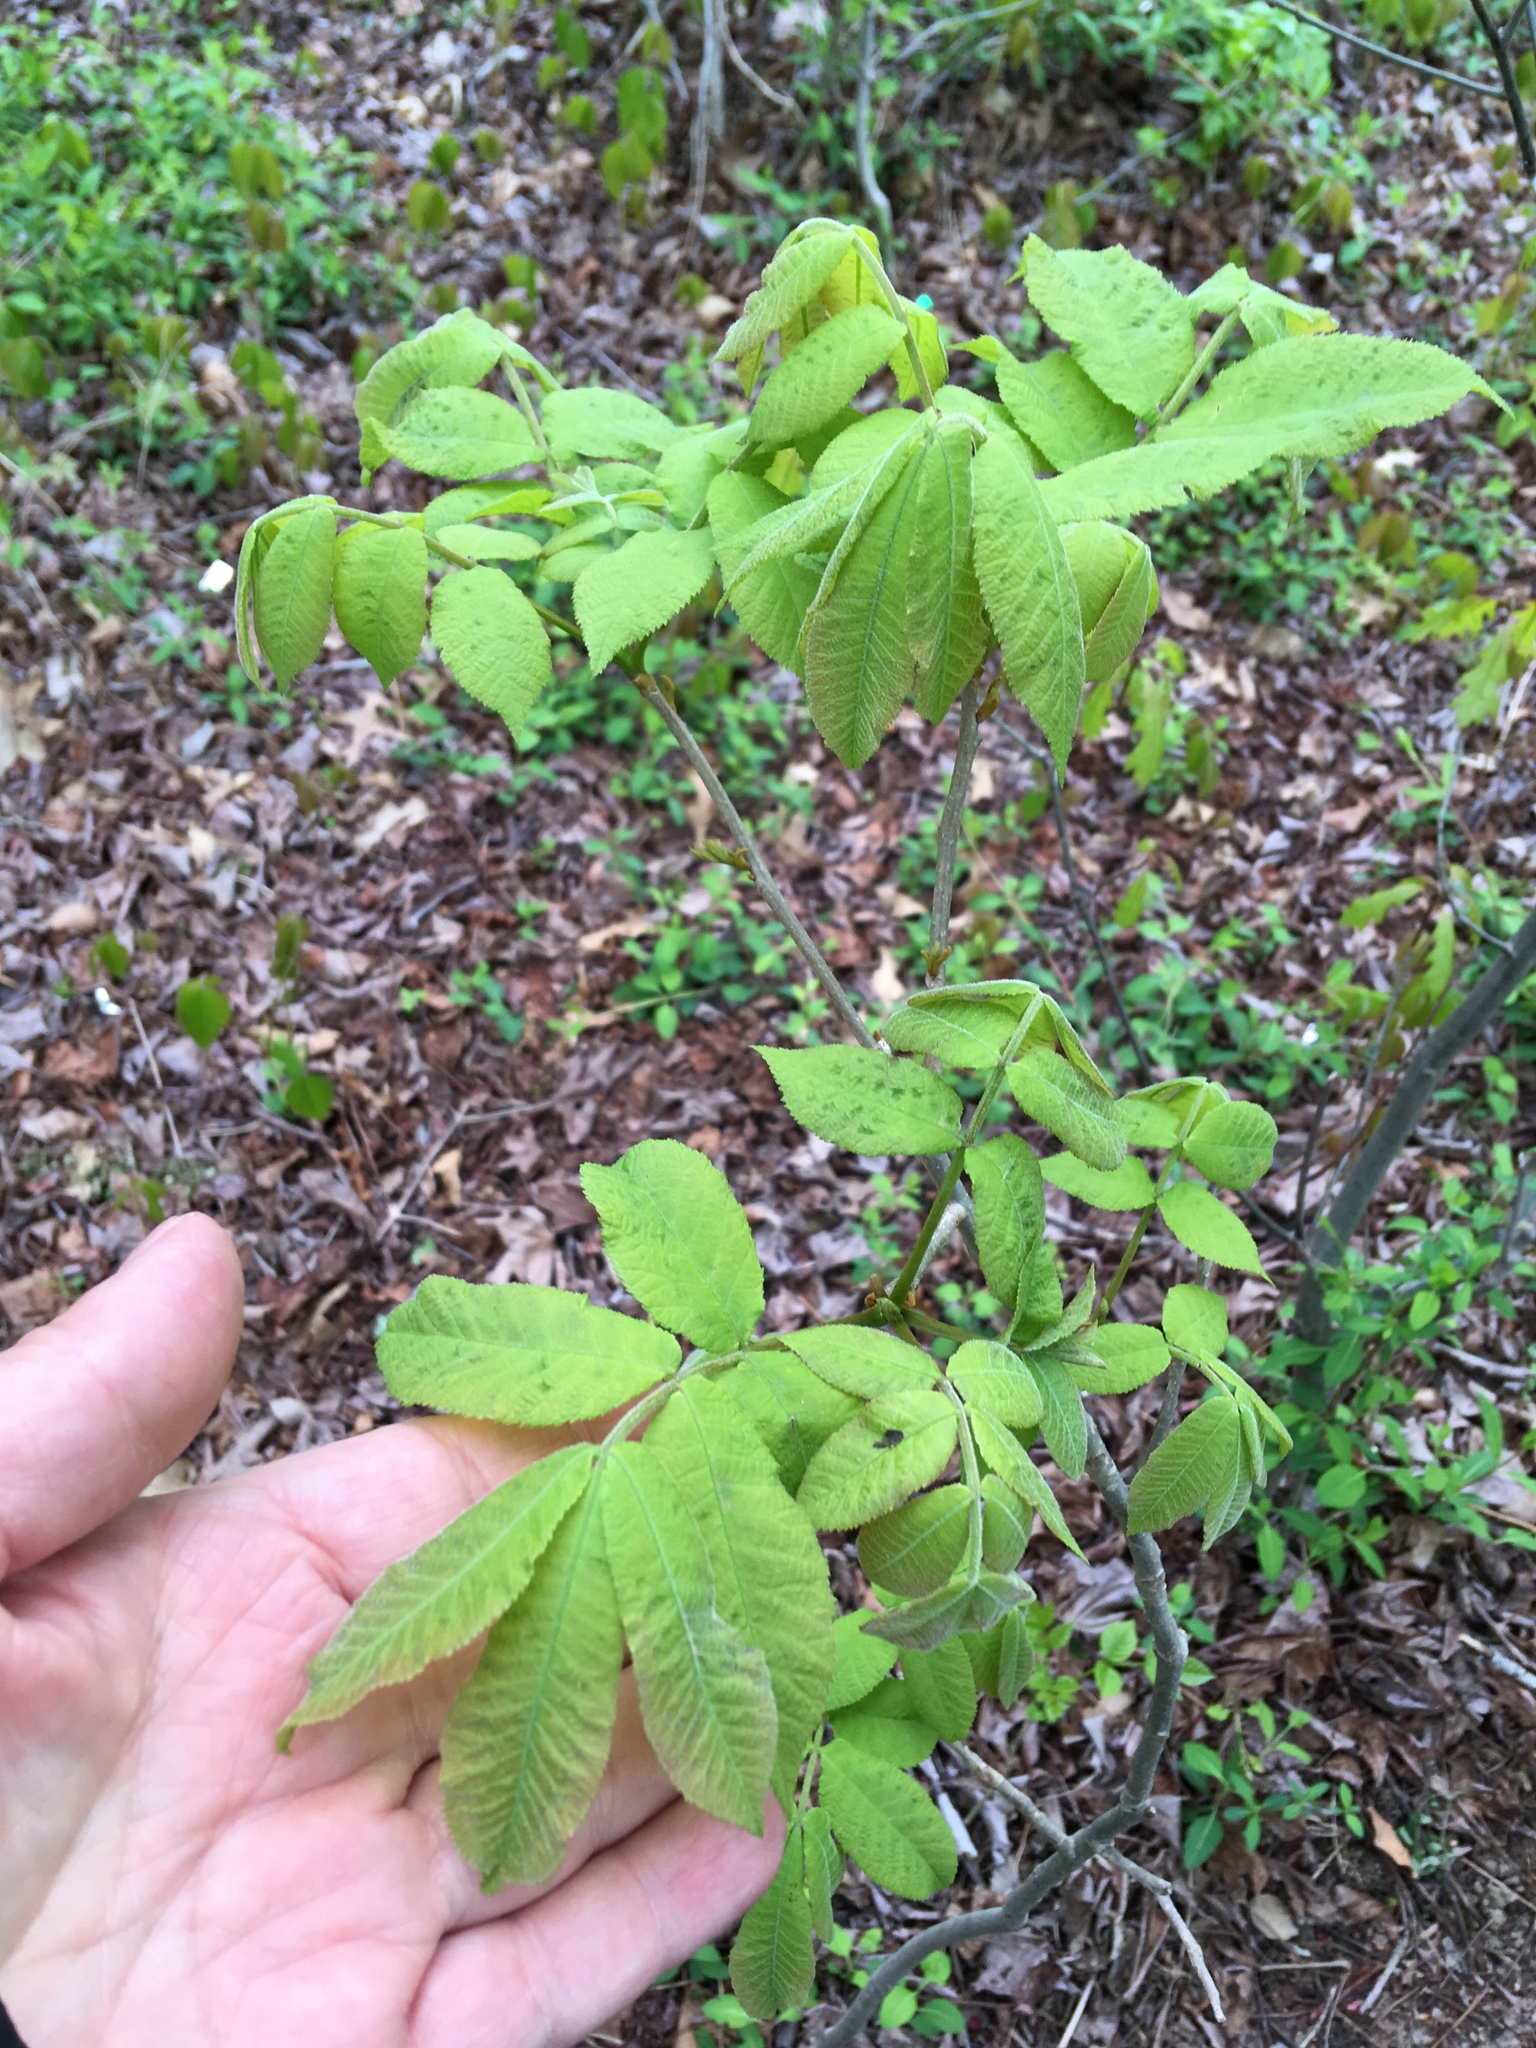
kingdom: Plantae
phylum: Tracheophyta
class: Magnoliopsida
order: Fagales
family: Juglandaceae
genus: Juglans
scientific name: Juglans nigra
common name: Black walnut
